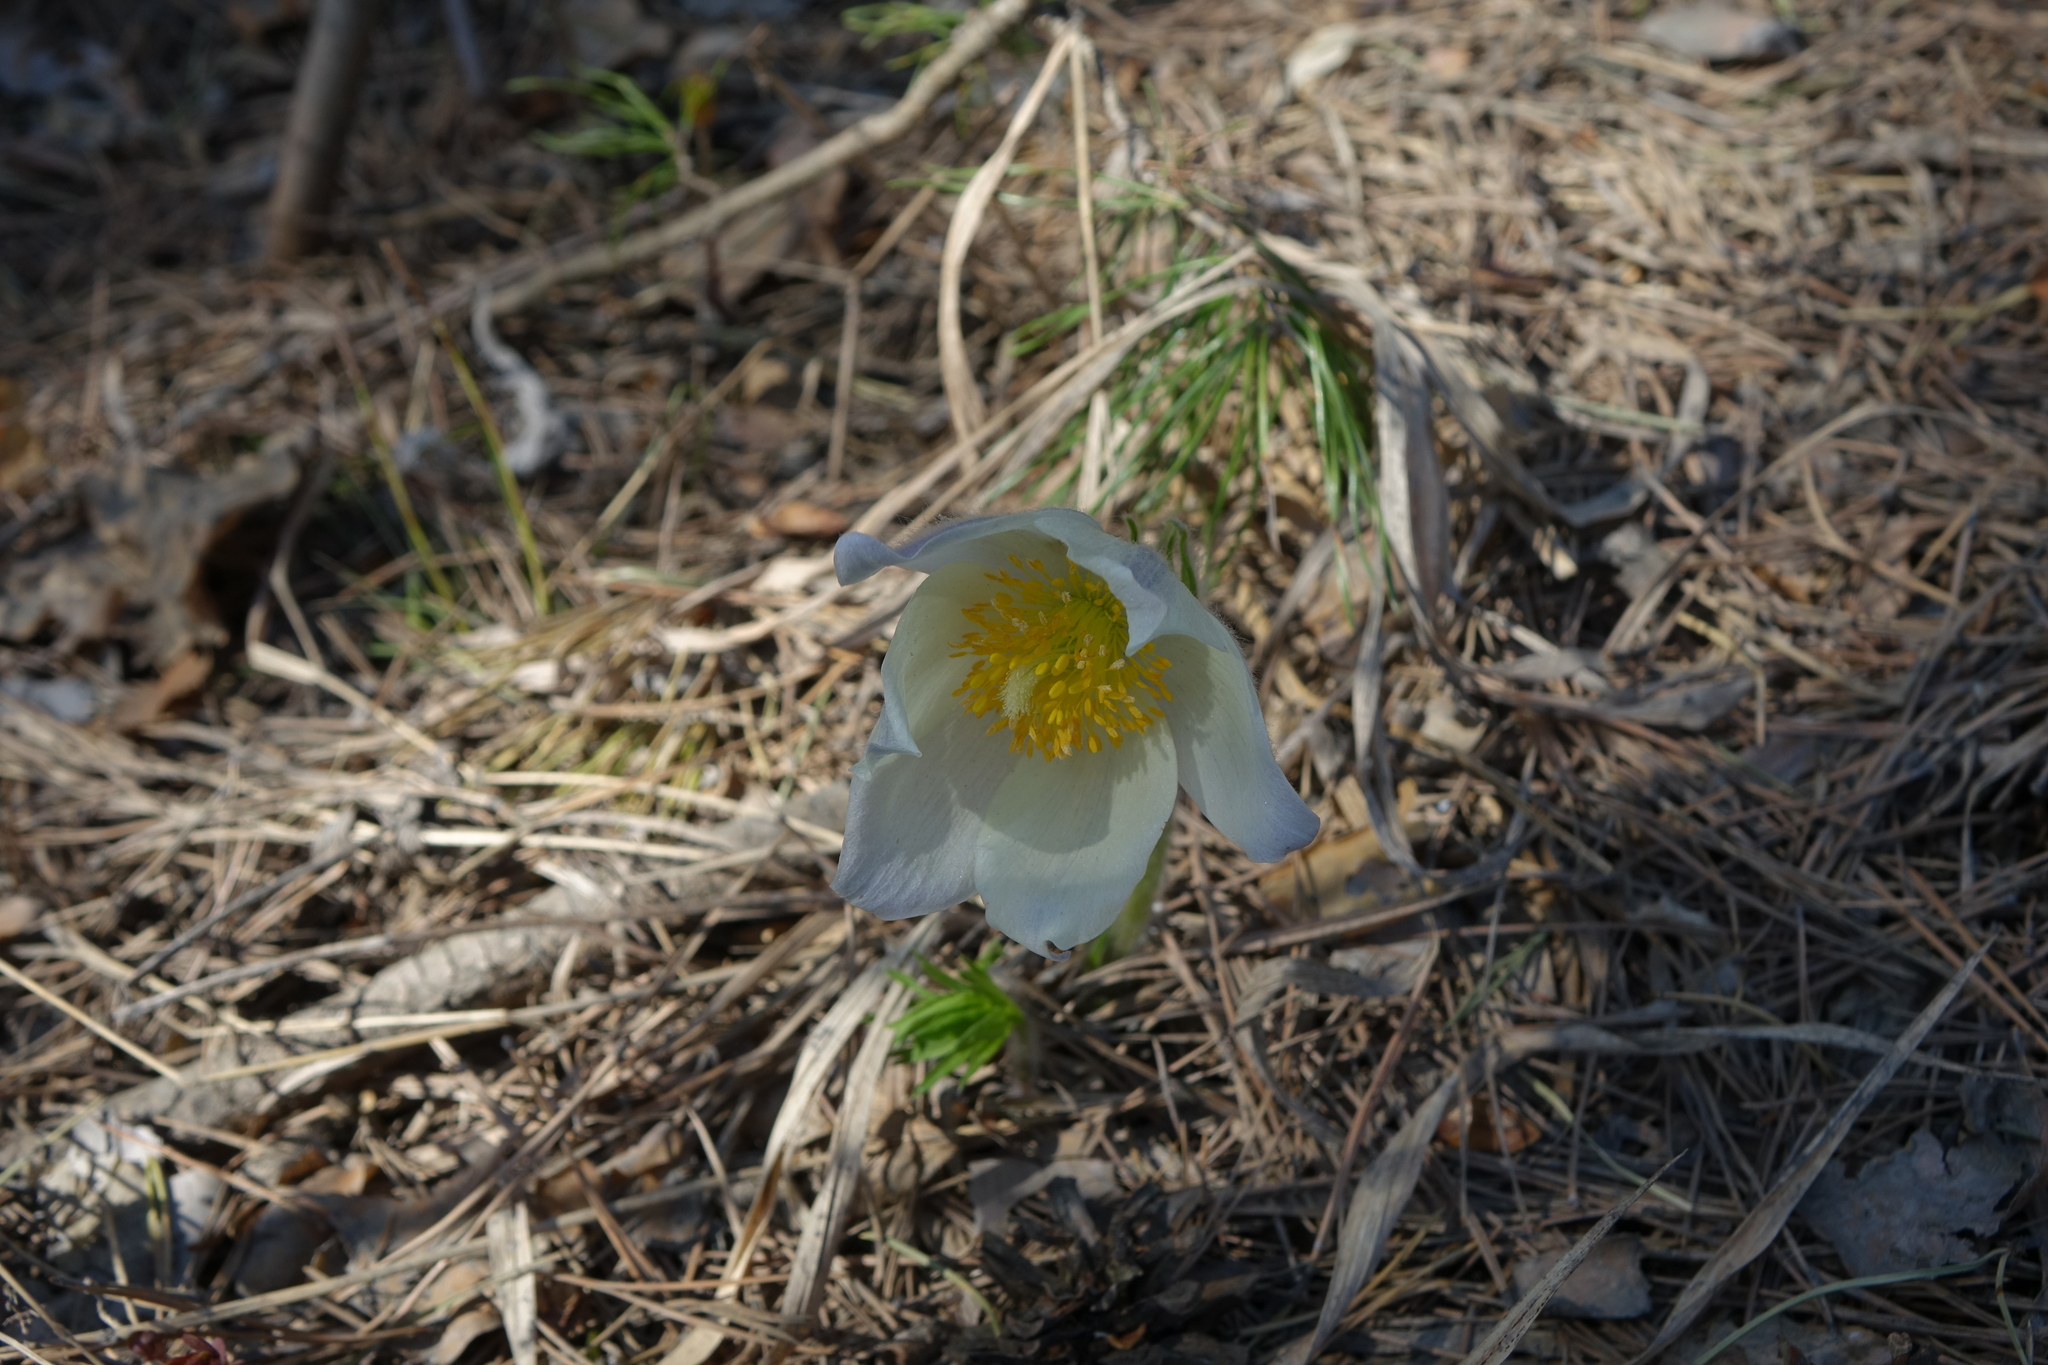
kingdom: Plantae
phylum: Tracheophyta
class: Magnoliopsida
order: Ranunculales
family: Ranunculaceae
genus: Pulsatilla
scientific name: Pulsatilla patens
